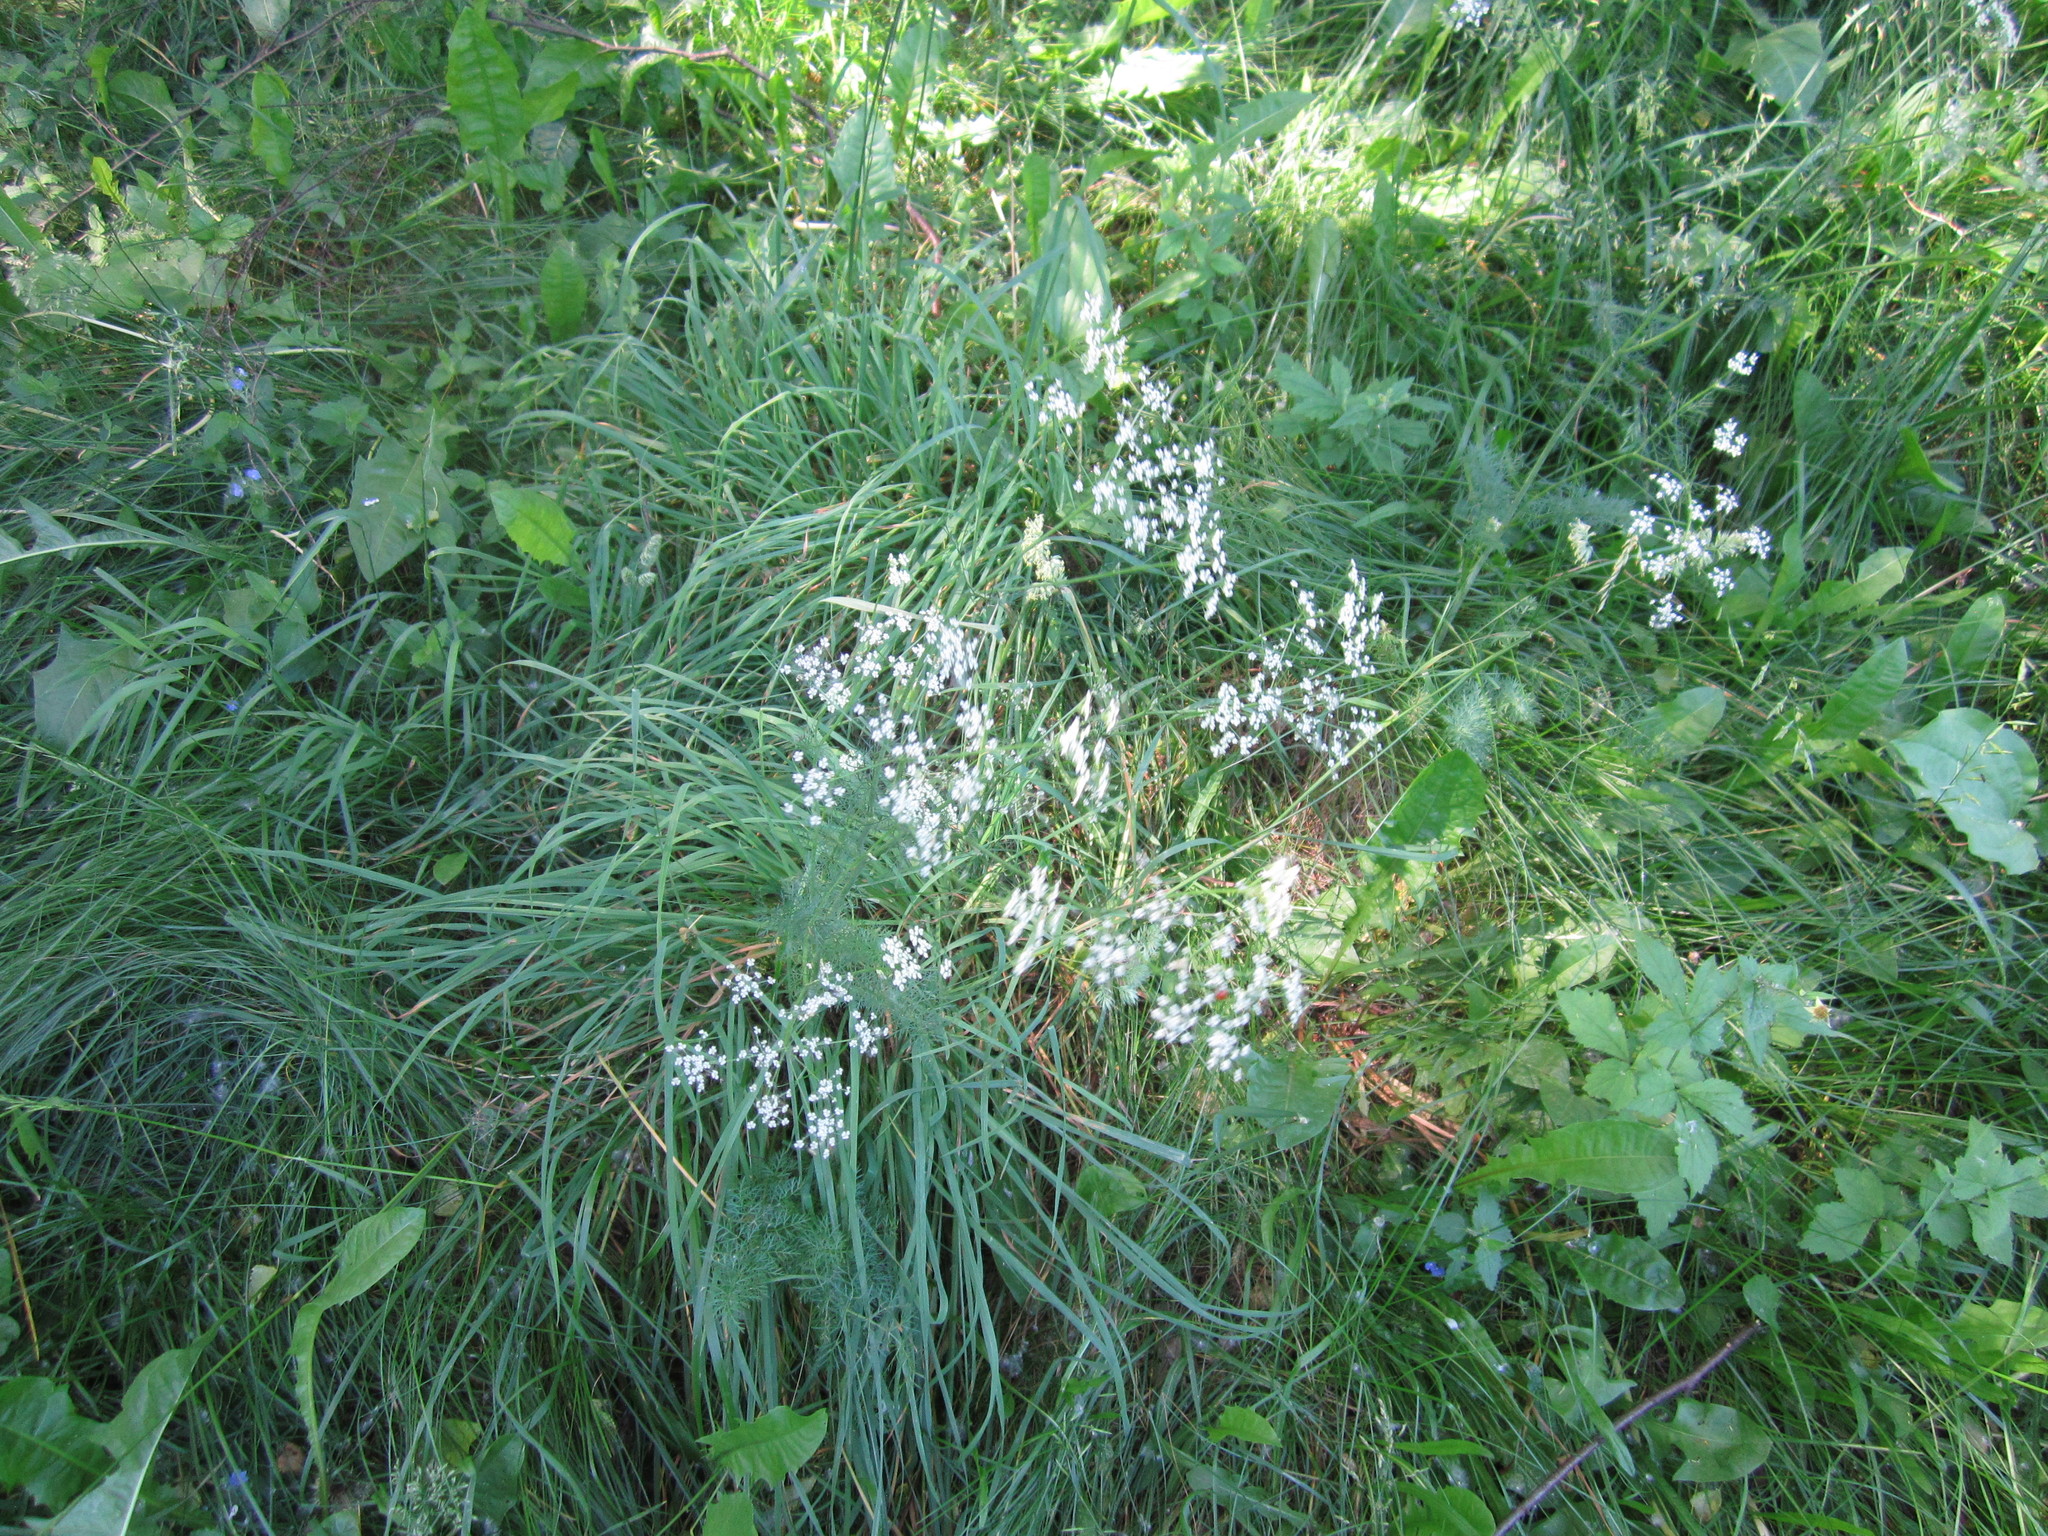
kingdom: Plantae
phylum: Tracheophyta
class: Magnoliopsida
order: Apiales
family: Apiaceae
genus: Carum
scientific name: Carum carvi
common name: Caraway
